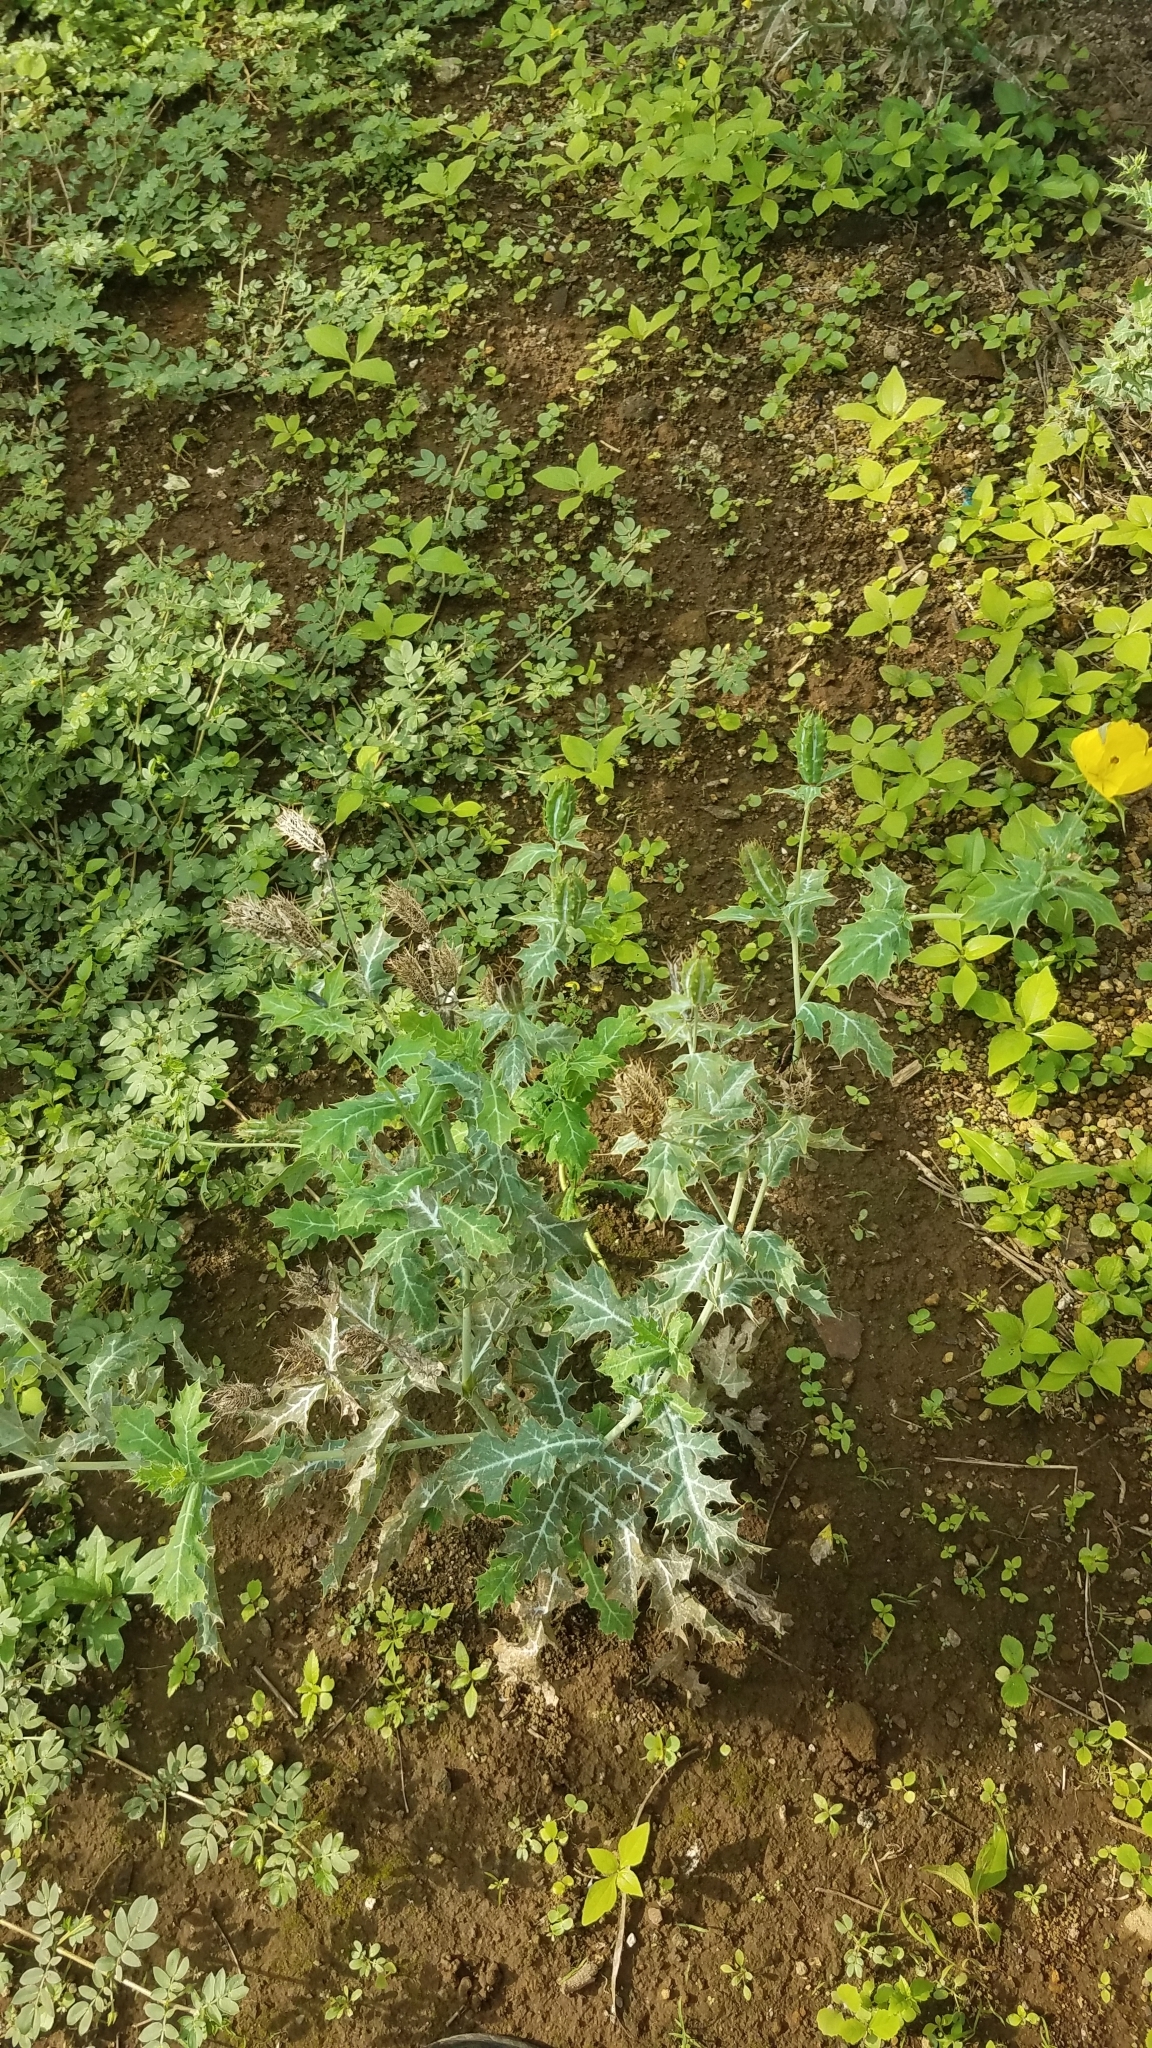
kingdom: Plantae
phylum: Tracheophyta
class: Magnoliopsida
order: Ranunculales
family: Papaveraceae
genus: Argemone
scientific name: Argemone mexicana
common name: Mexican poppy
